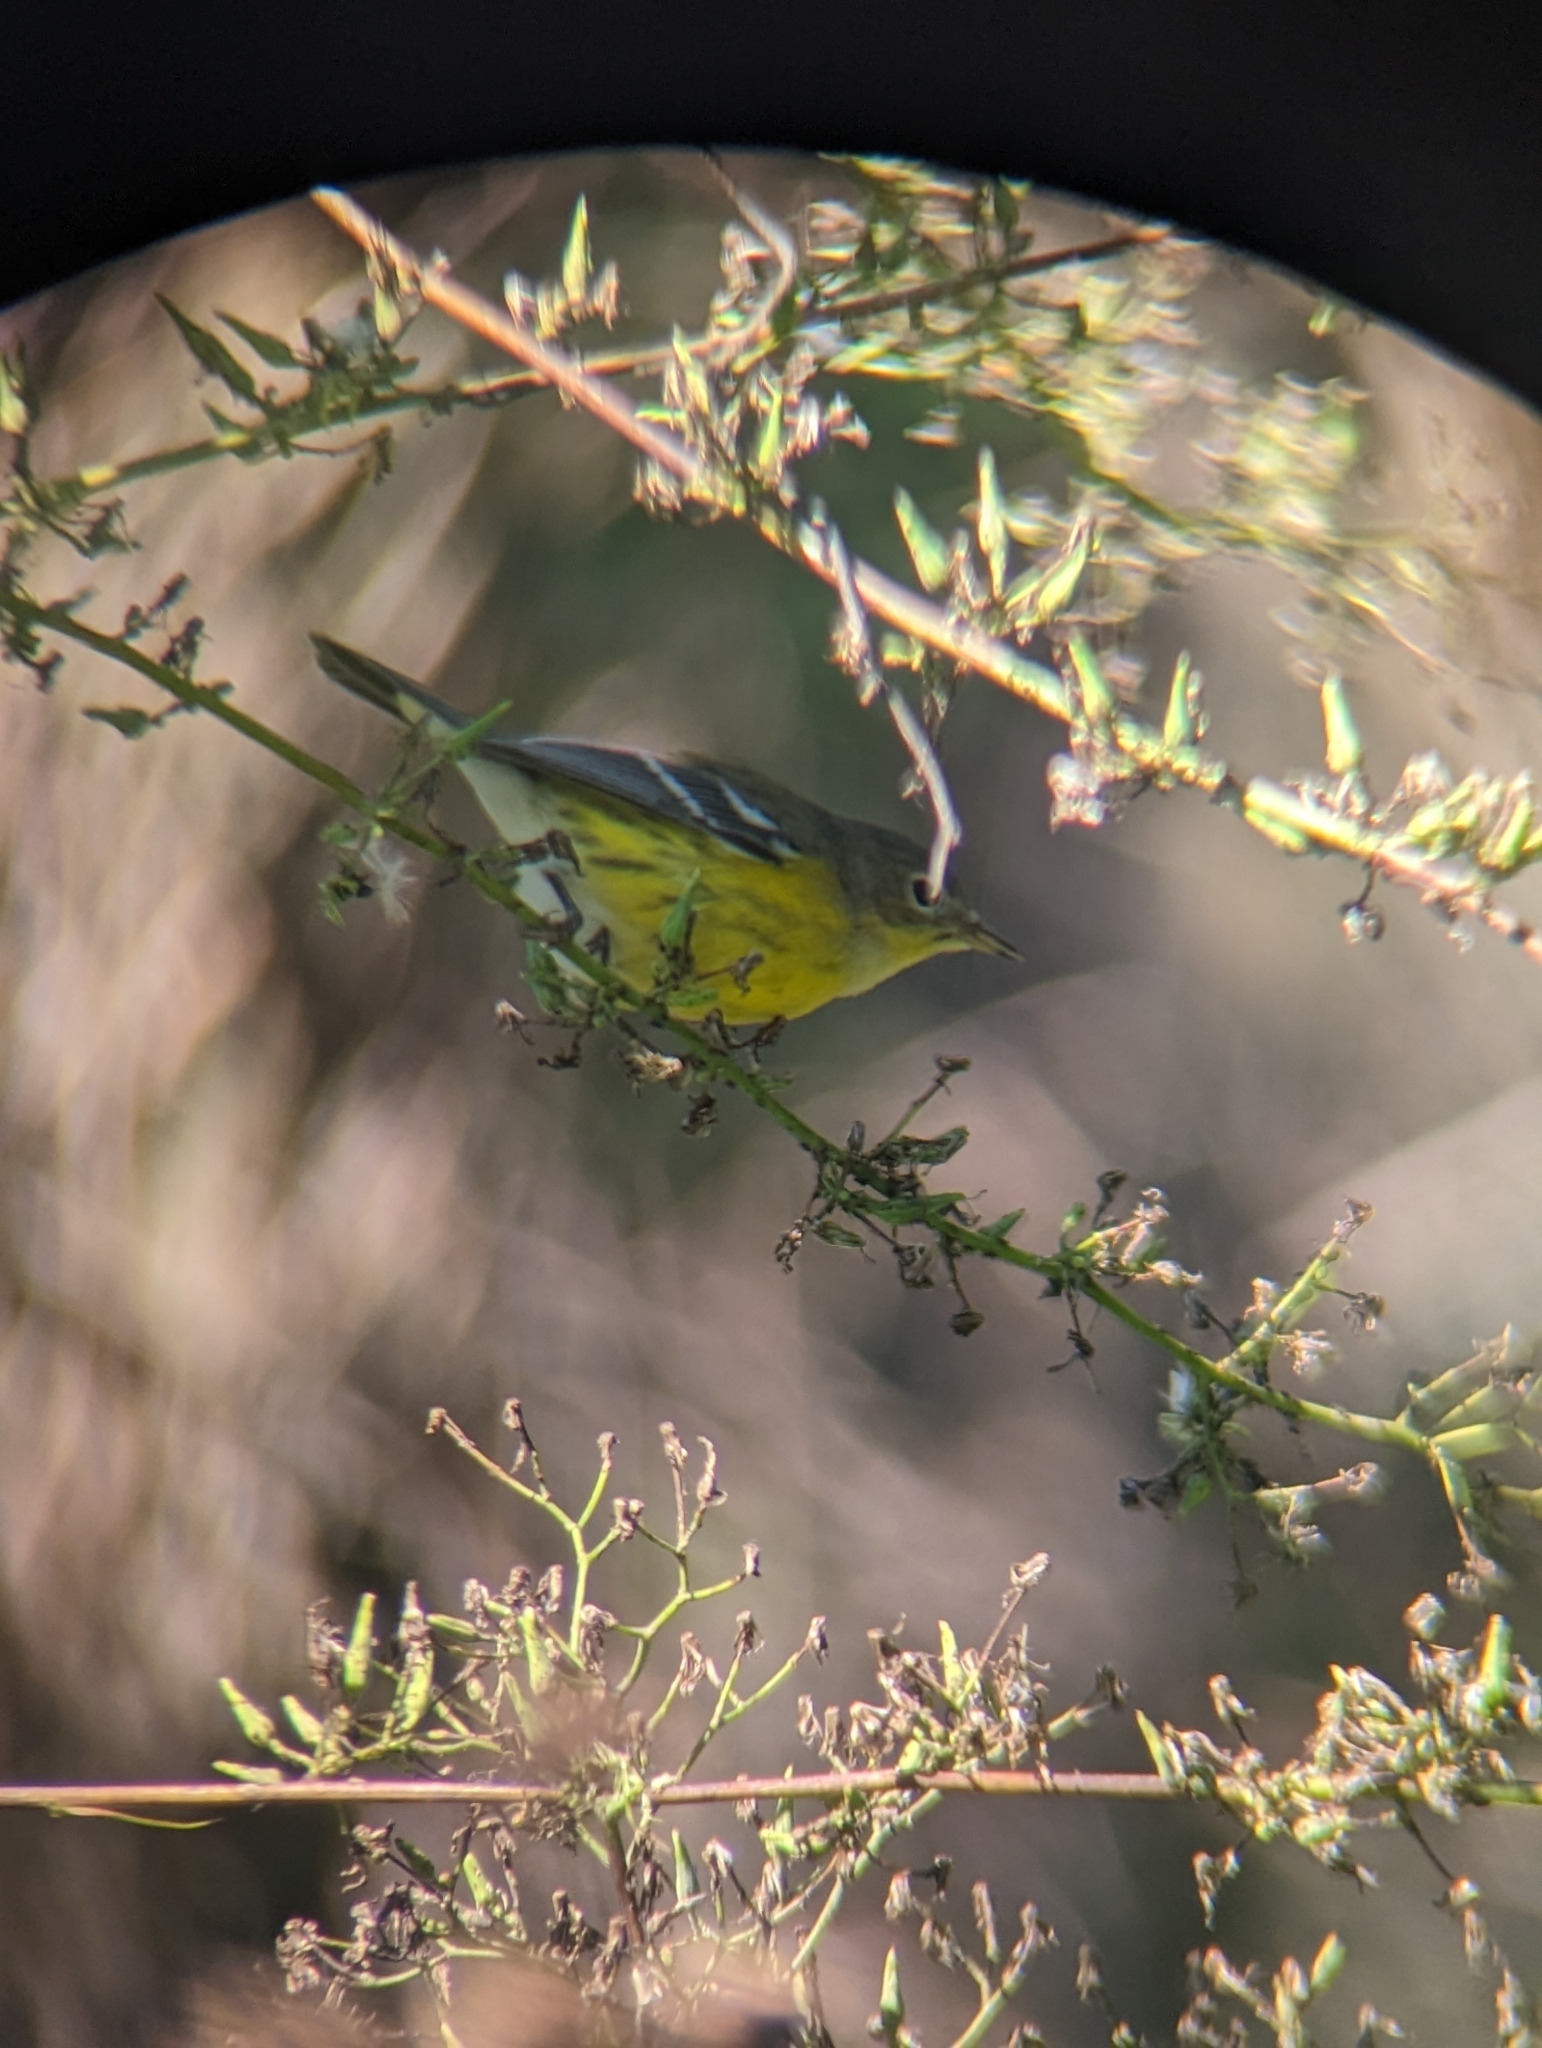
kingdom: Animalia
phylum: Chordata
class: Aves
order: Passeriformes
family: Parulidae
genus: Setophaga
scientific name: Setophaga magnolia
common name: Magnolia warbler
